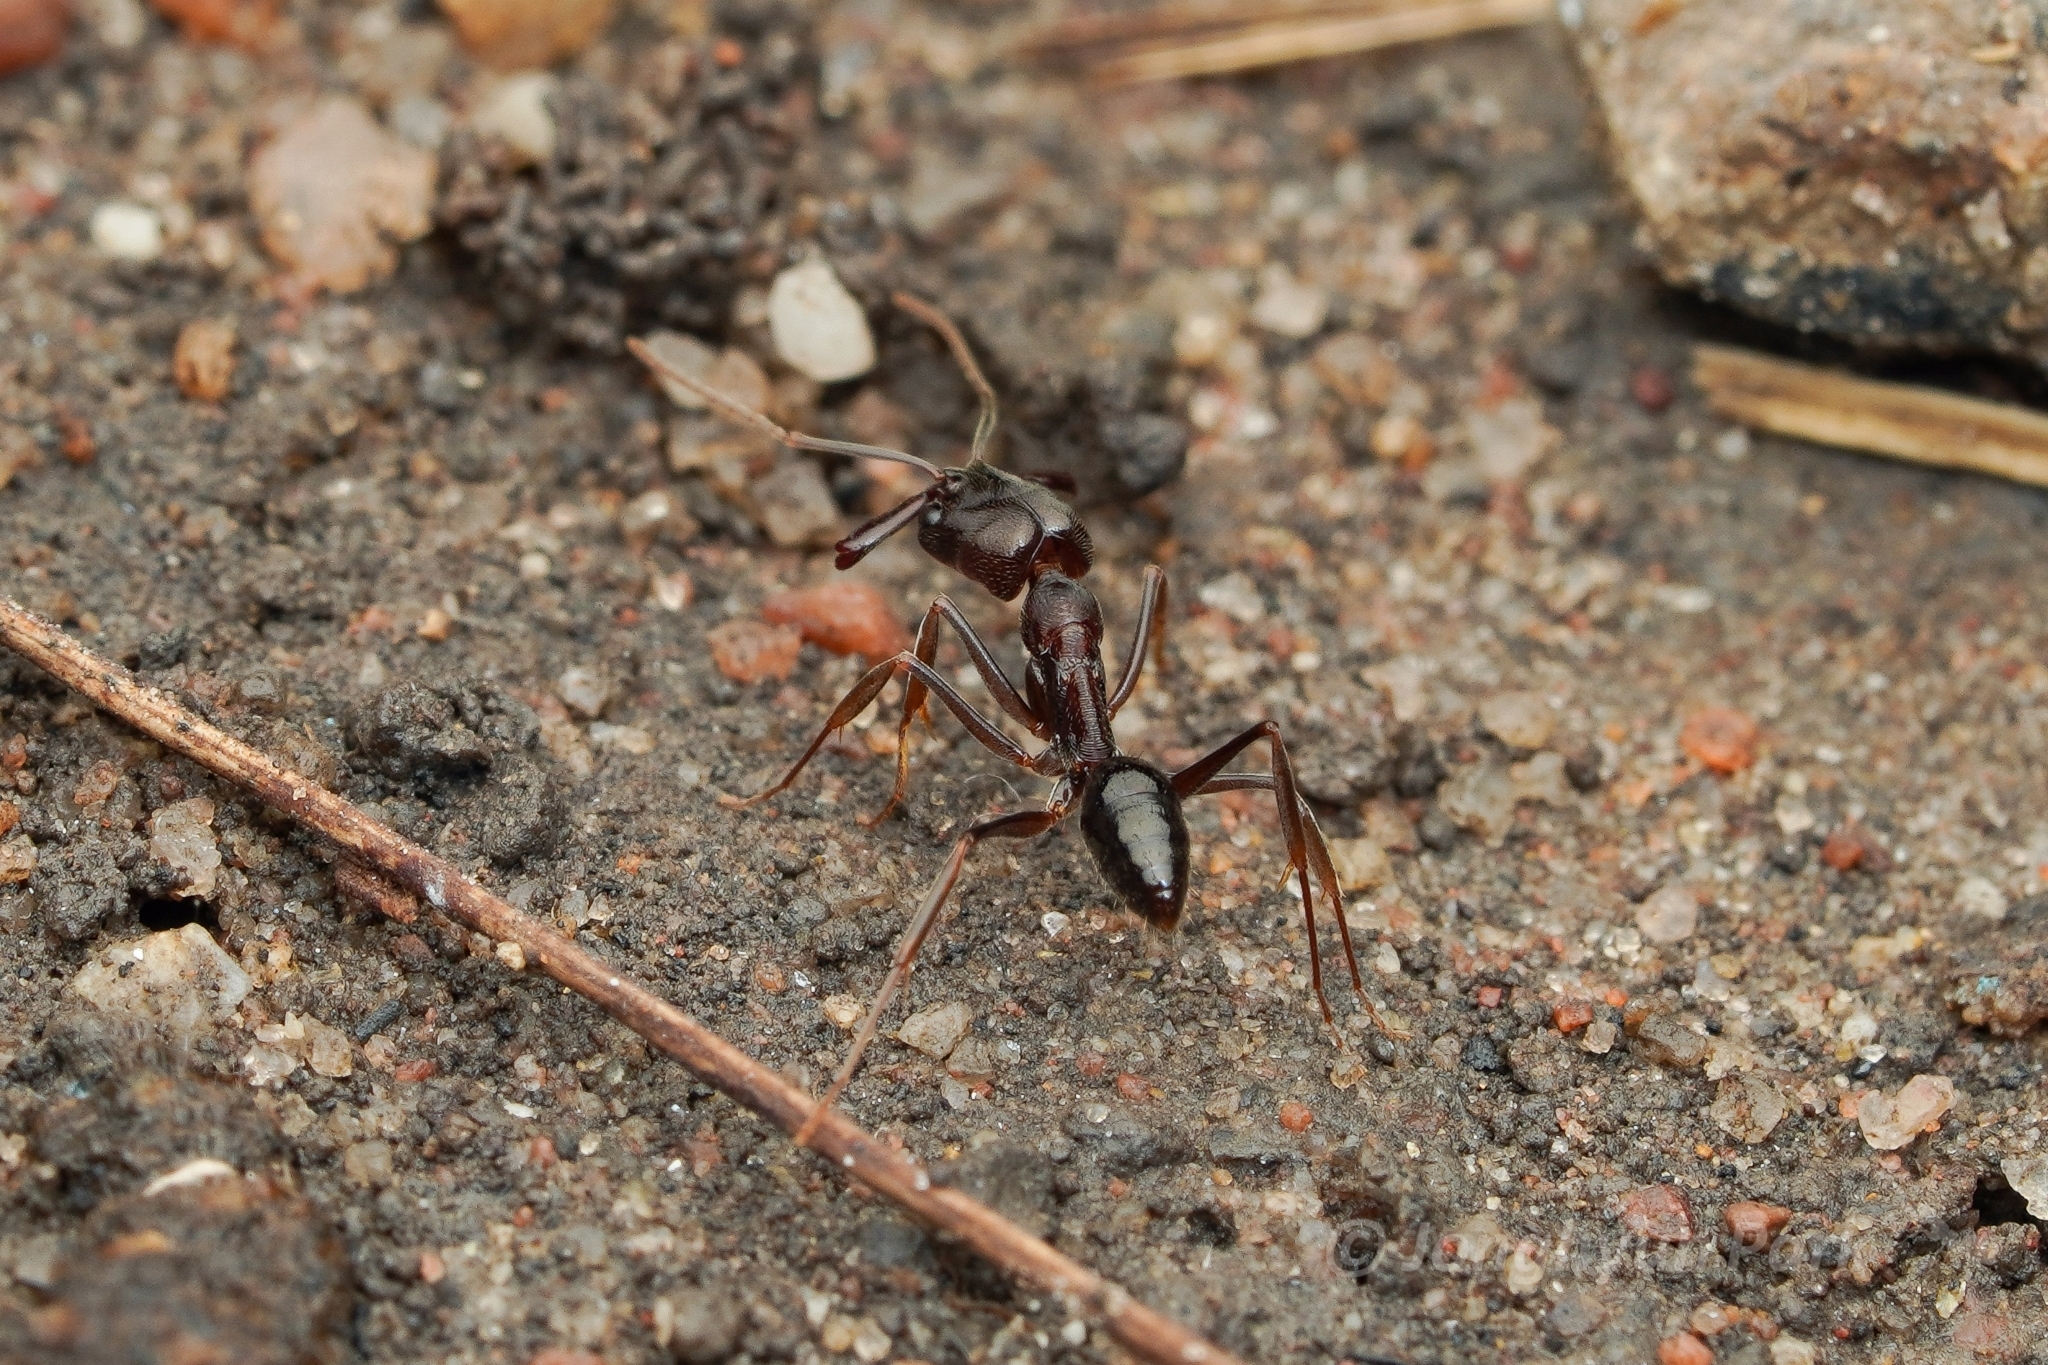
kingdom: Animalia
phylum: Arthropoda
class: Insecta
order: Hymenoptera
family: Formicidae
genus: Odontomachus
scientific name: Odontomachus simillimus
